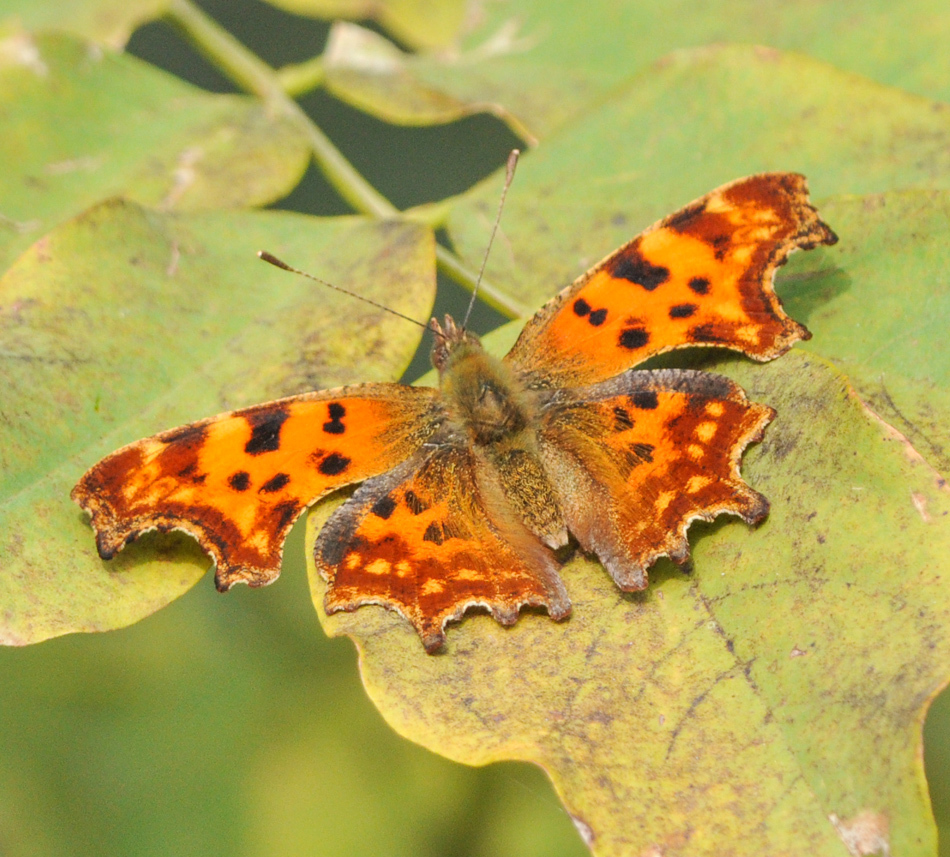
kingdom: Animalia
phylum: Arthropoda
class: Insecta
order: Lepidoptera
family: Nymphalidae
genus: Polygonia
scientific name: Polygonia c-album
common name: Comma
